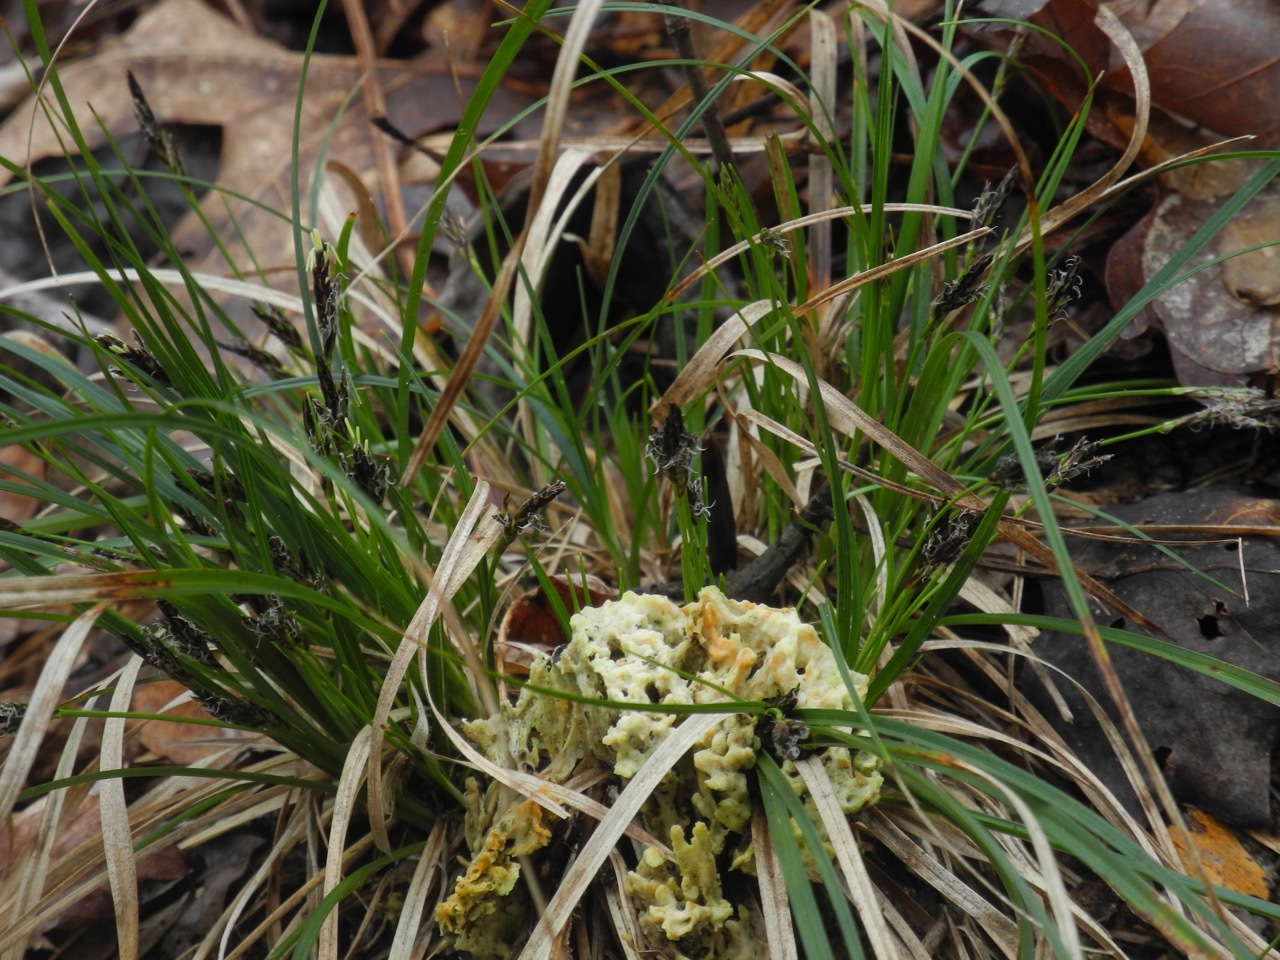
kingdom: Plantae
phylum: Tracheophyta
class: Liliopsida
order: Poales
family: Cyperaceae
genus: Carex
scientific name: Carex communis
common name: Colonial oak sedge
